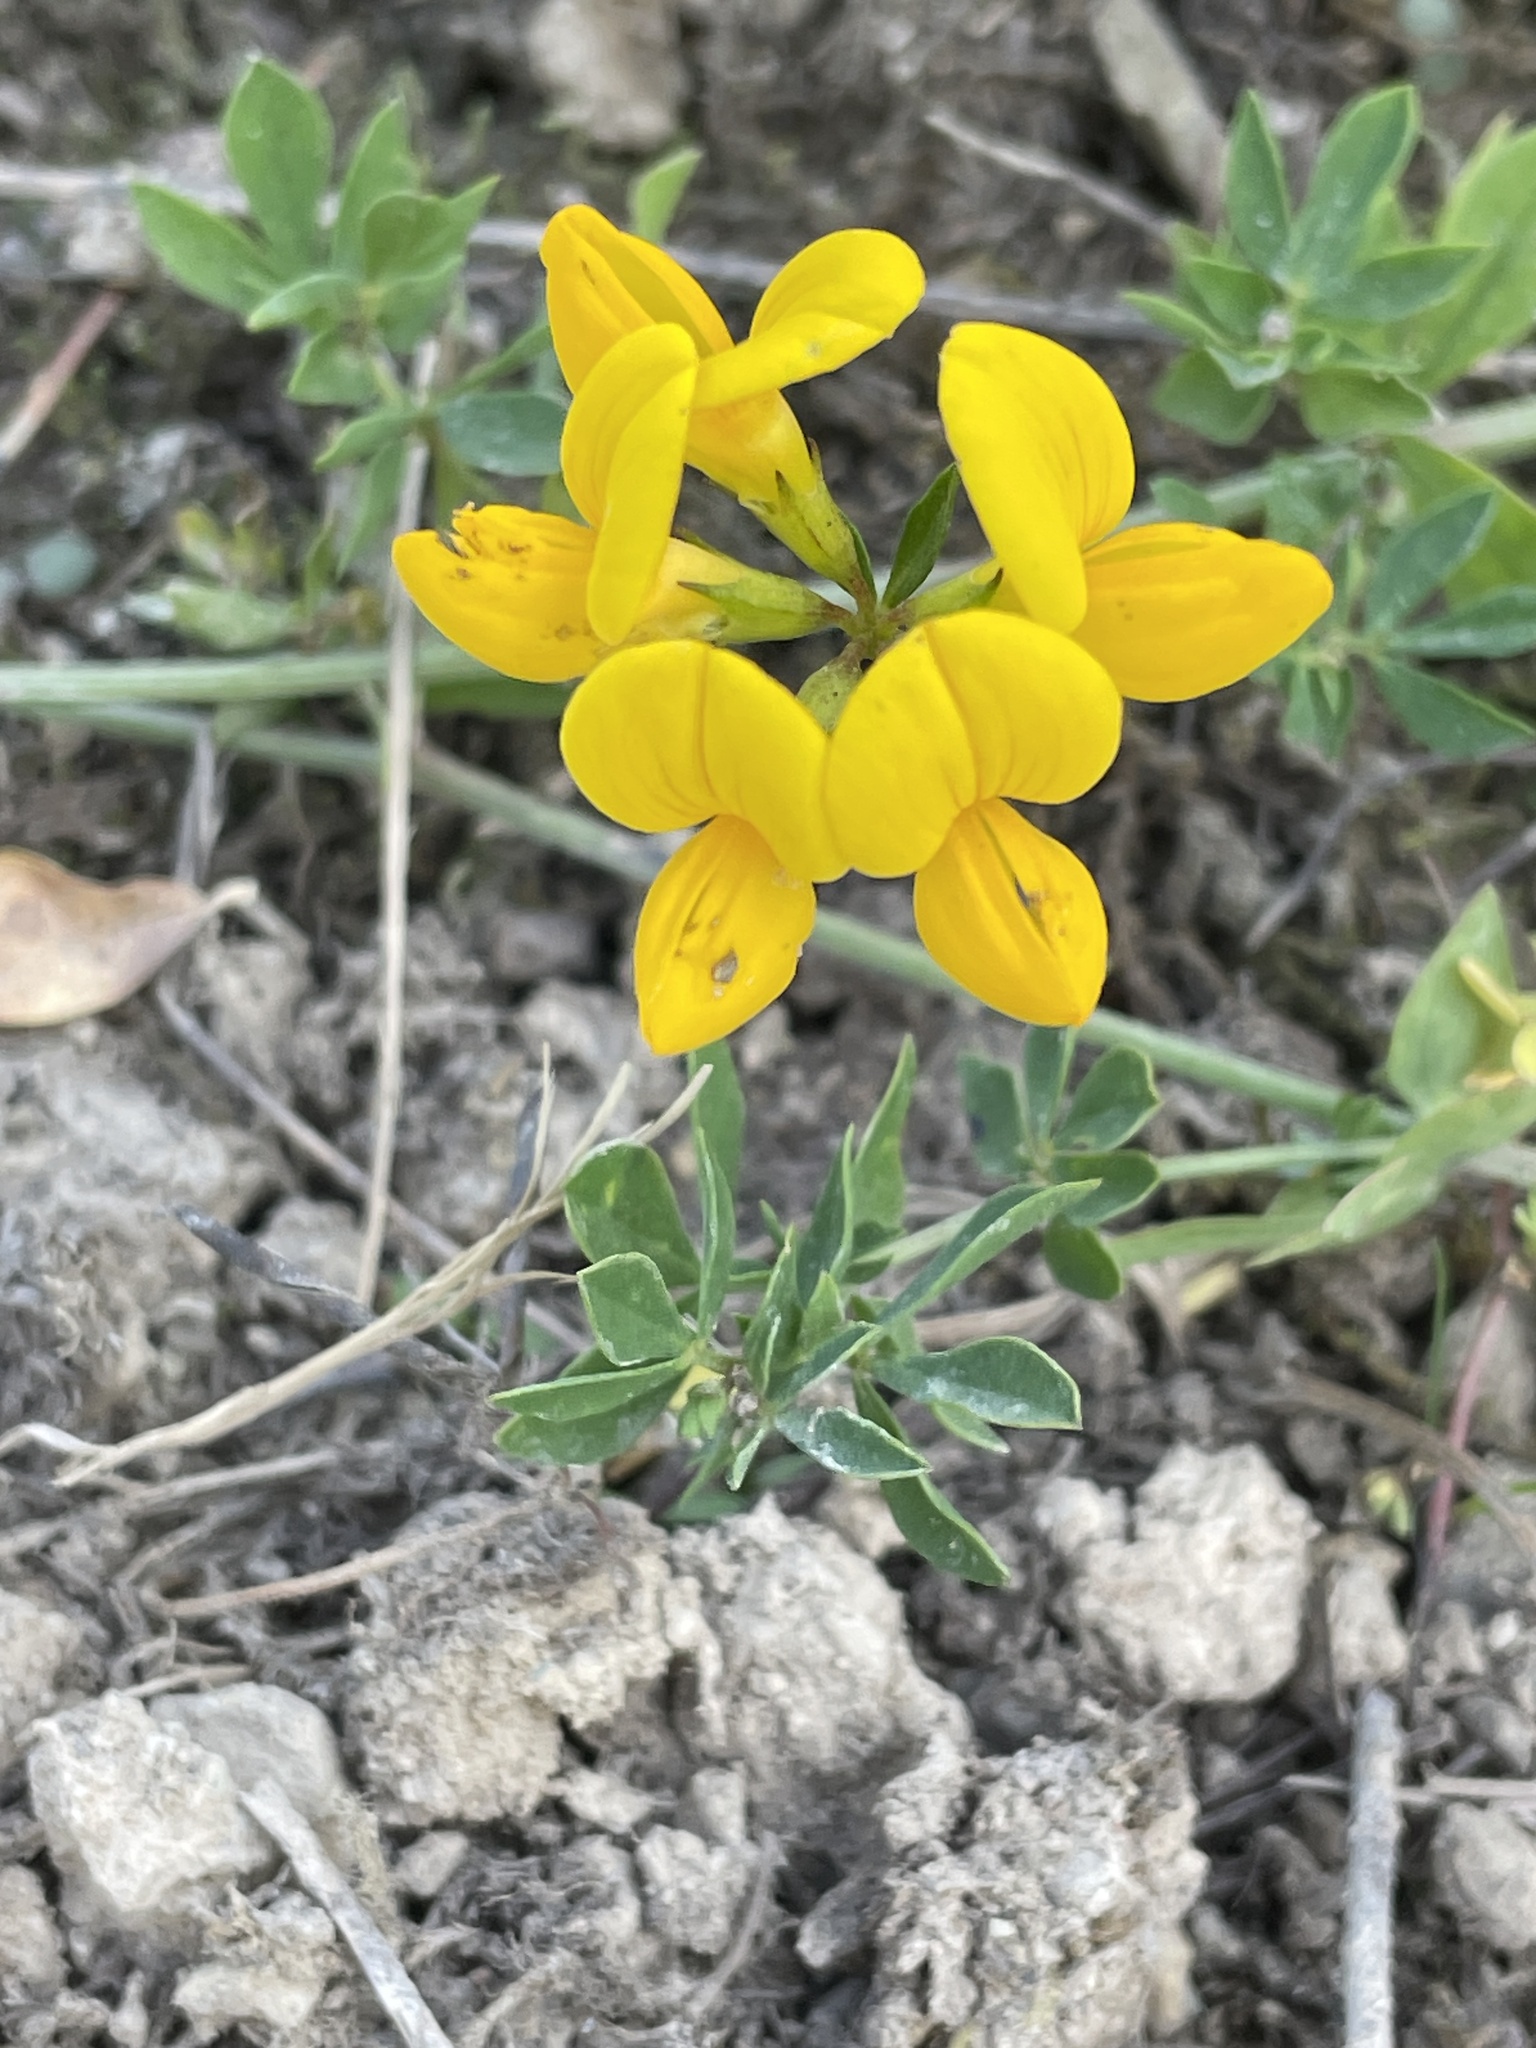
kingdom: Plantae
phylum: Tracheophyta
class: Magnoliopsida
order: Fabales
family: Fabaceae
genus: Lotus
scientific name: Lotus corniculatus
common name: Common bird's-foot-trefoil
